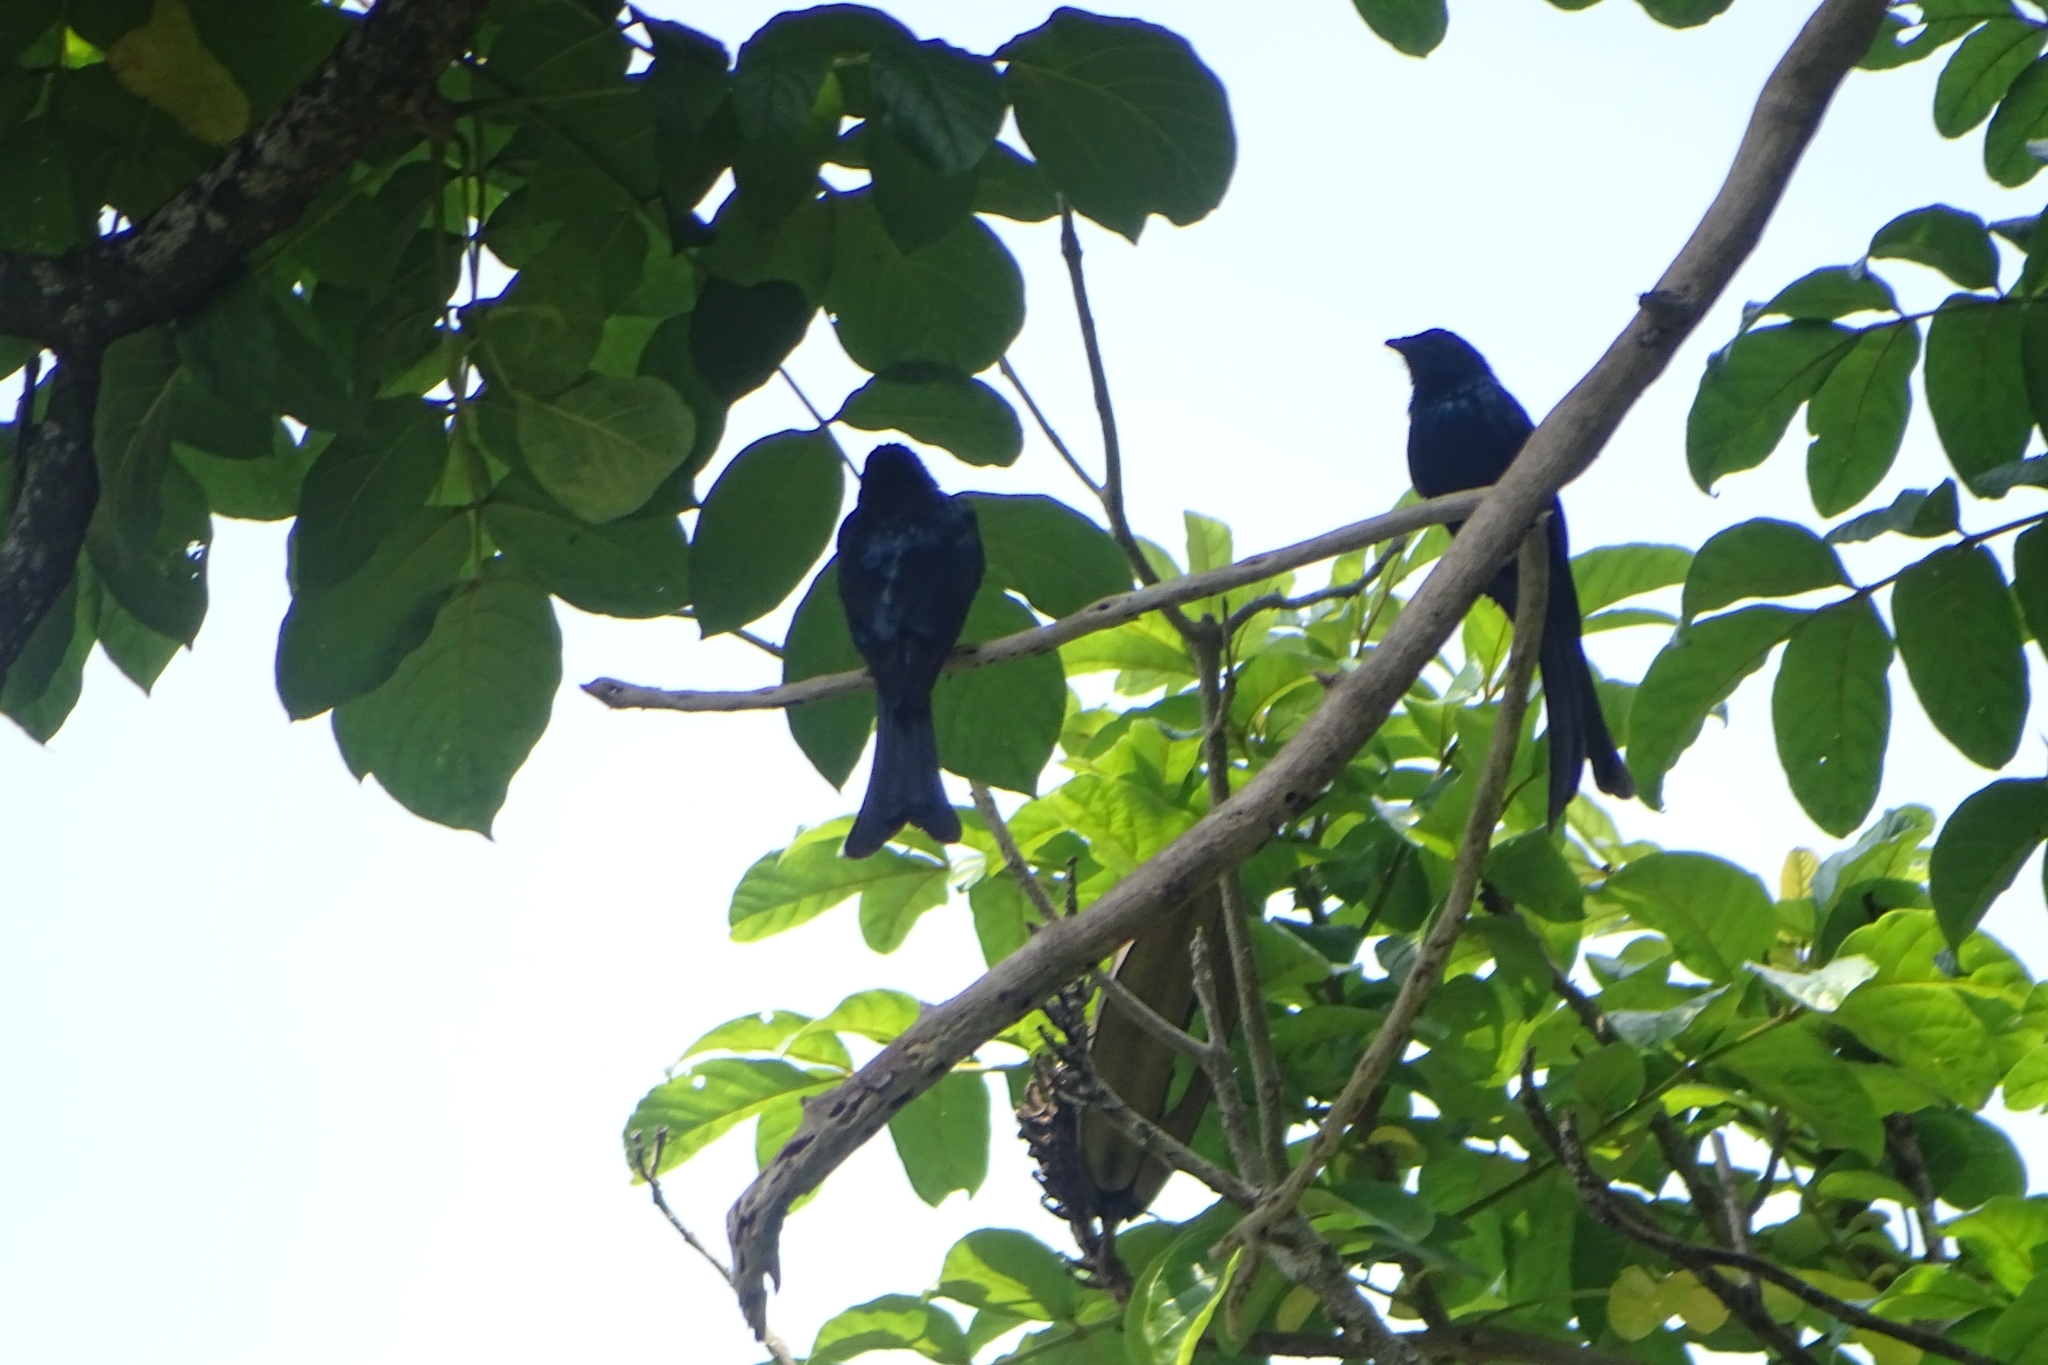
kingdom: Animalia
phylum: Chordata
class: Aves
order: Passeriformes
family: Dicruridae
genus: Dicrurus
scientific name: Dicrurus aeneus
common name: Bronzed drongo
